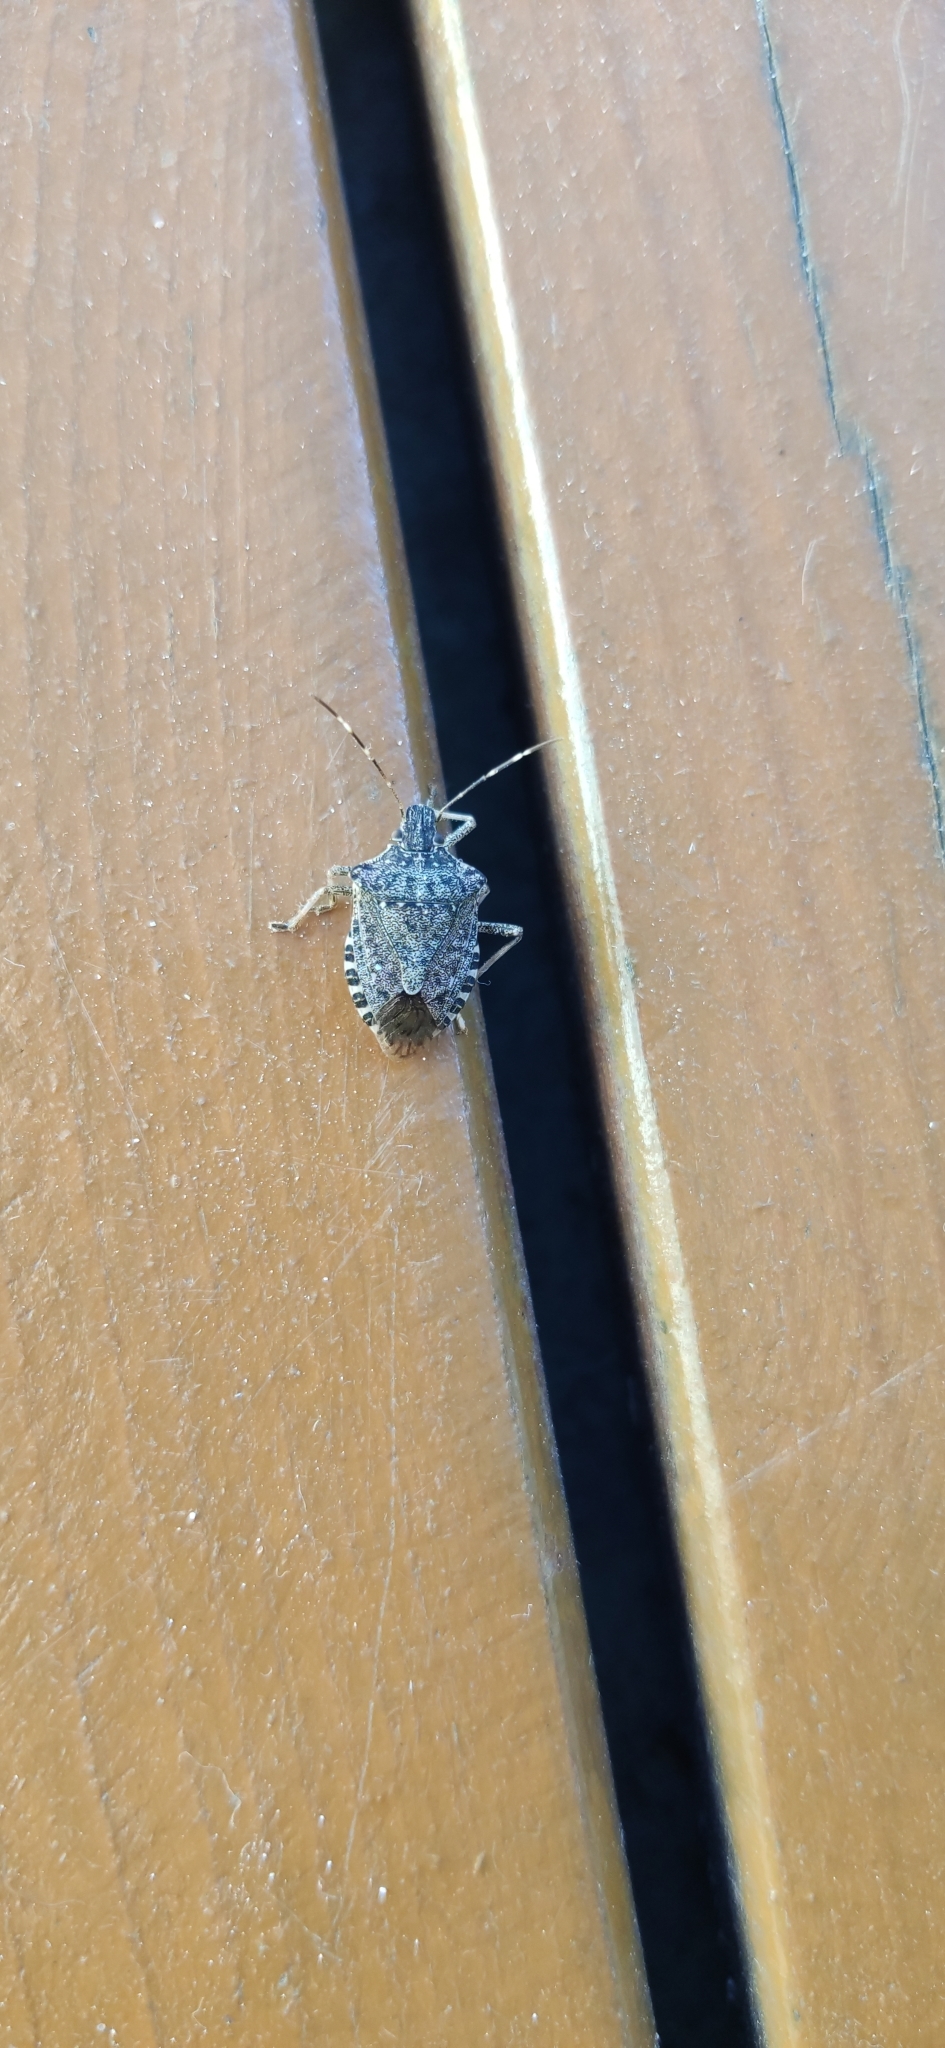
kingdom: Animalia
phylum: Arthropoda
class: Insecta
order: Hemiptera
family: Pentatomidae
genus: Halyomorpha
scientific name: Halyomorpha halys
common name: Brown marmorated stink bug
